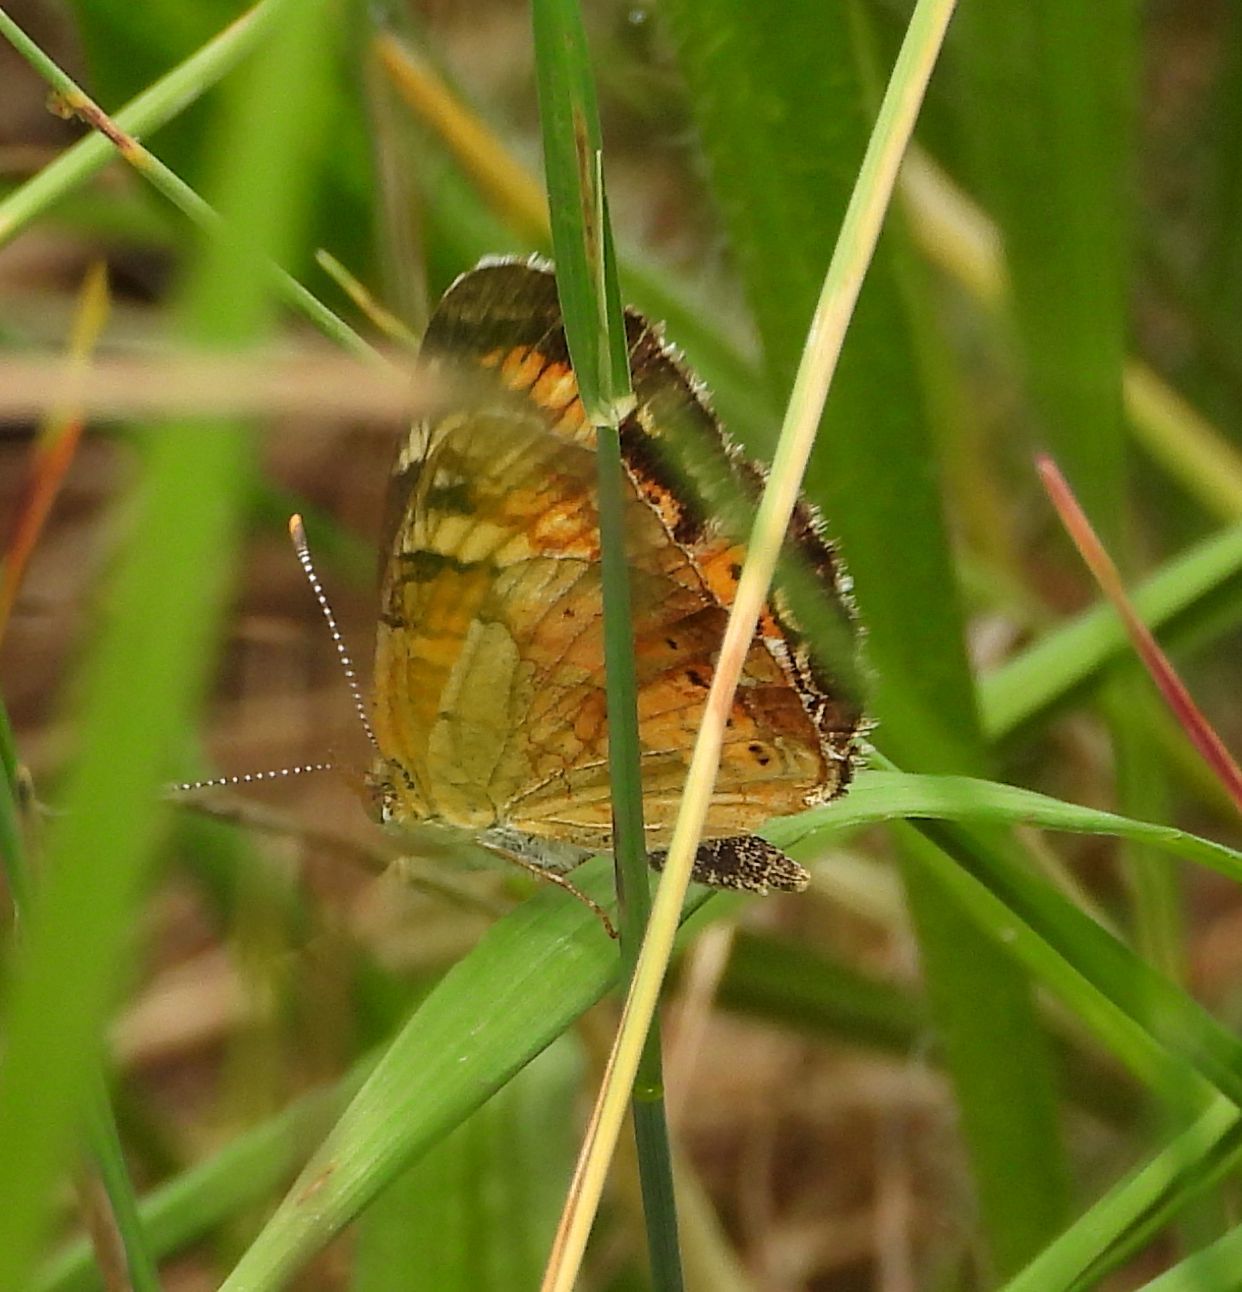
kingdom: Animalia
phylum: Arthropoda
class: Insecta
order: Lepidoptera
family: Nymphalidae
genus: Phyciodes
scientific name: Phyciodes tharos
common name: Pearl crescent
